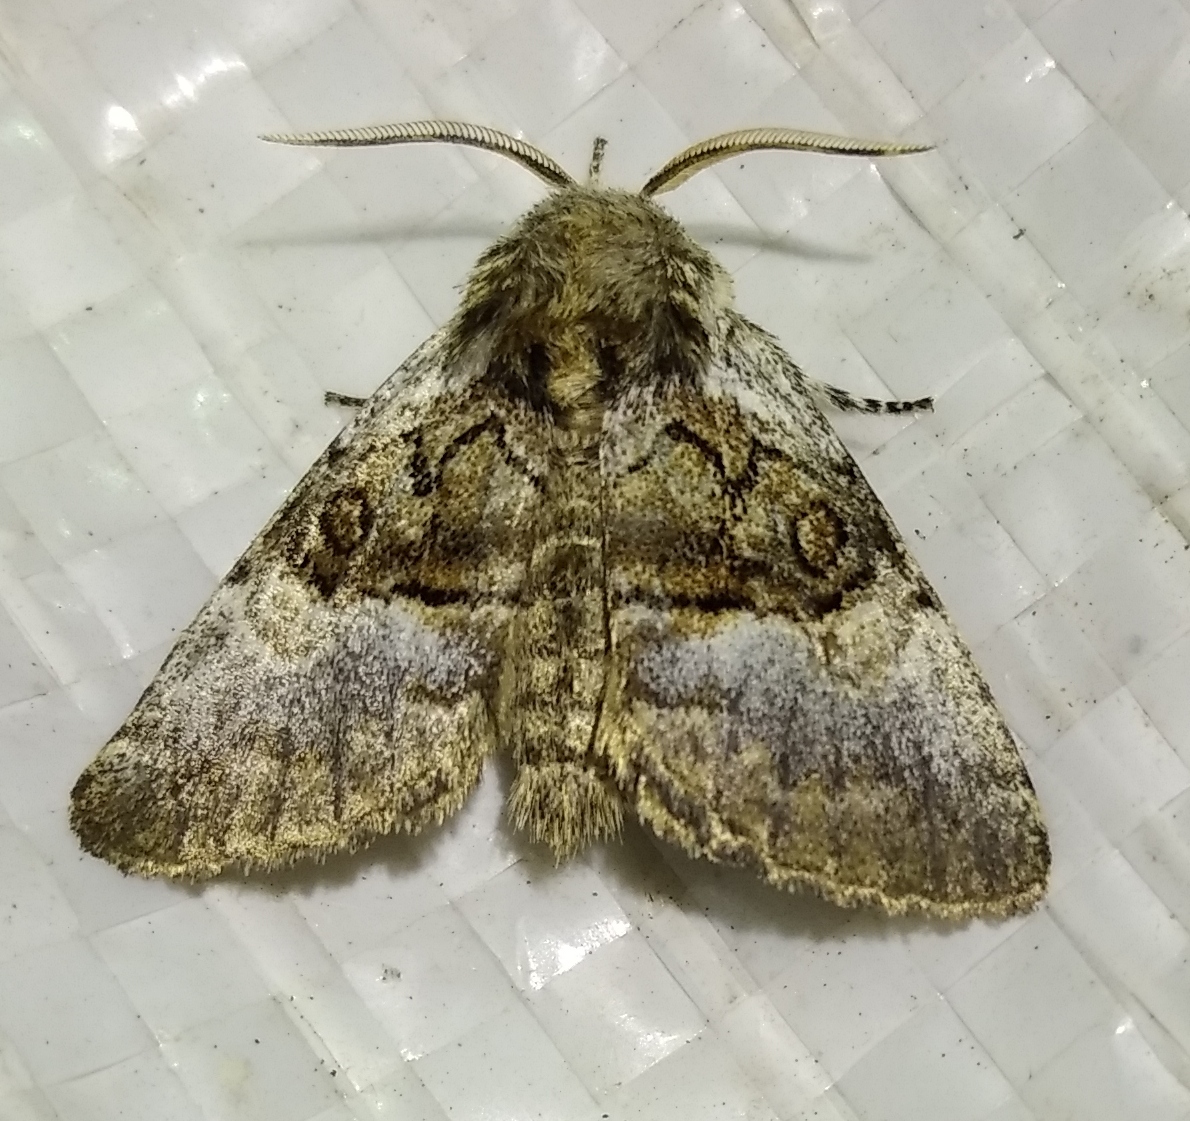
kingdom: Animalia
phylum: Arthropoda
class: Insecta
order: Lepidoptera
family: Noctuidae
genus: Colocasia
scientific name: Colocasia coryli
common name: Nut-tree tussock
